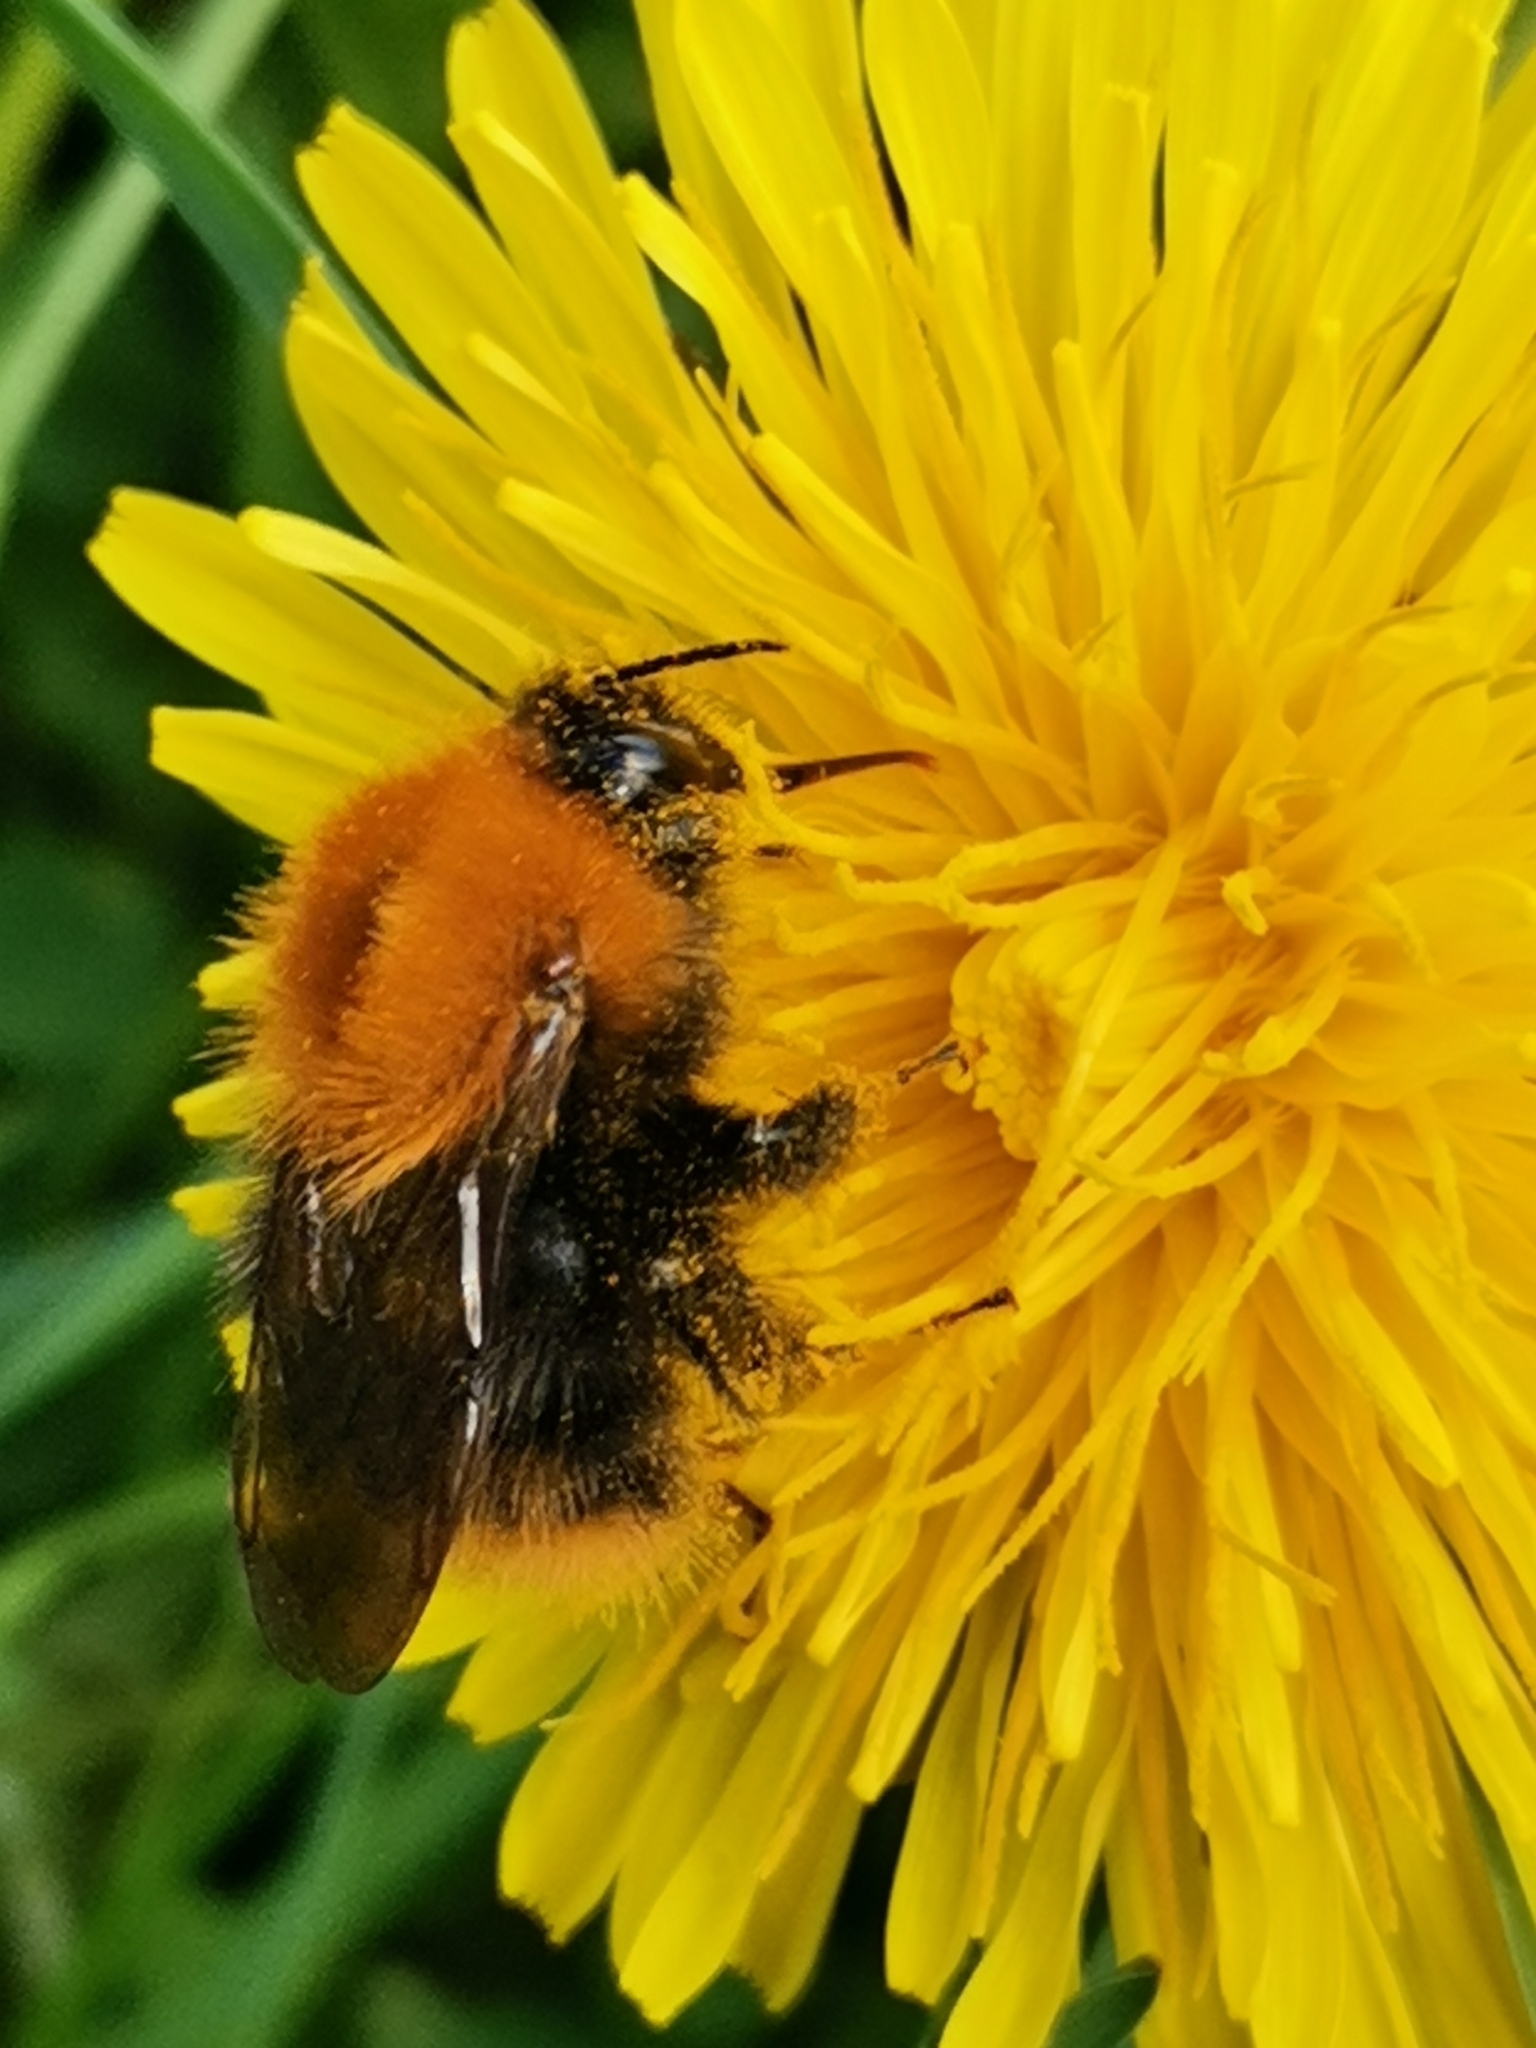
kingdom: Animalia
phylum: Arthropoda
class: Insecta
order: Hymenoptera
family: Apidae
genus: Bombus
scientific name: Bombus pascuorum
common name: Common carder bee
